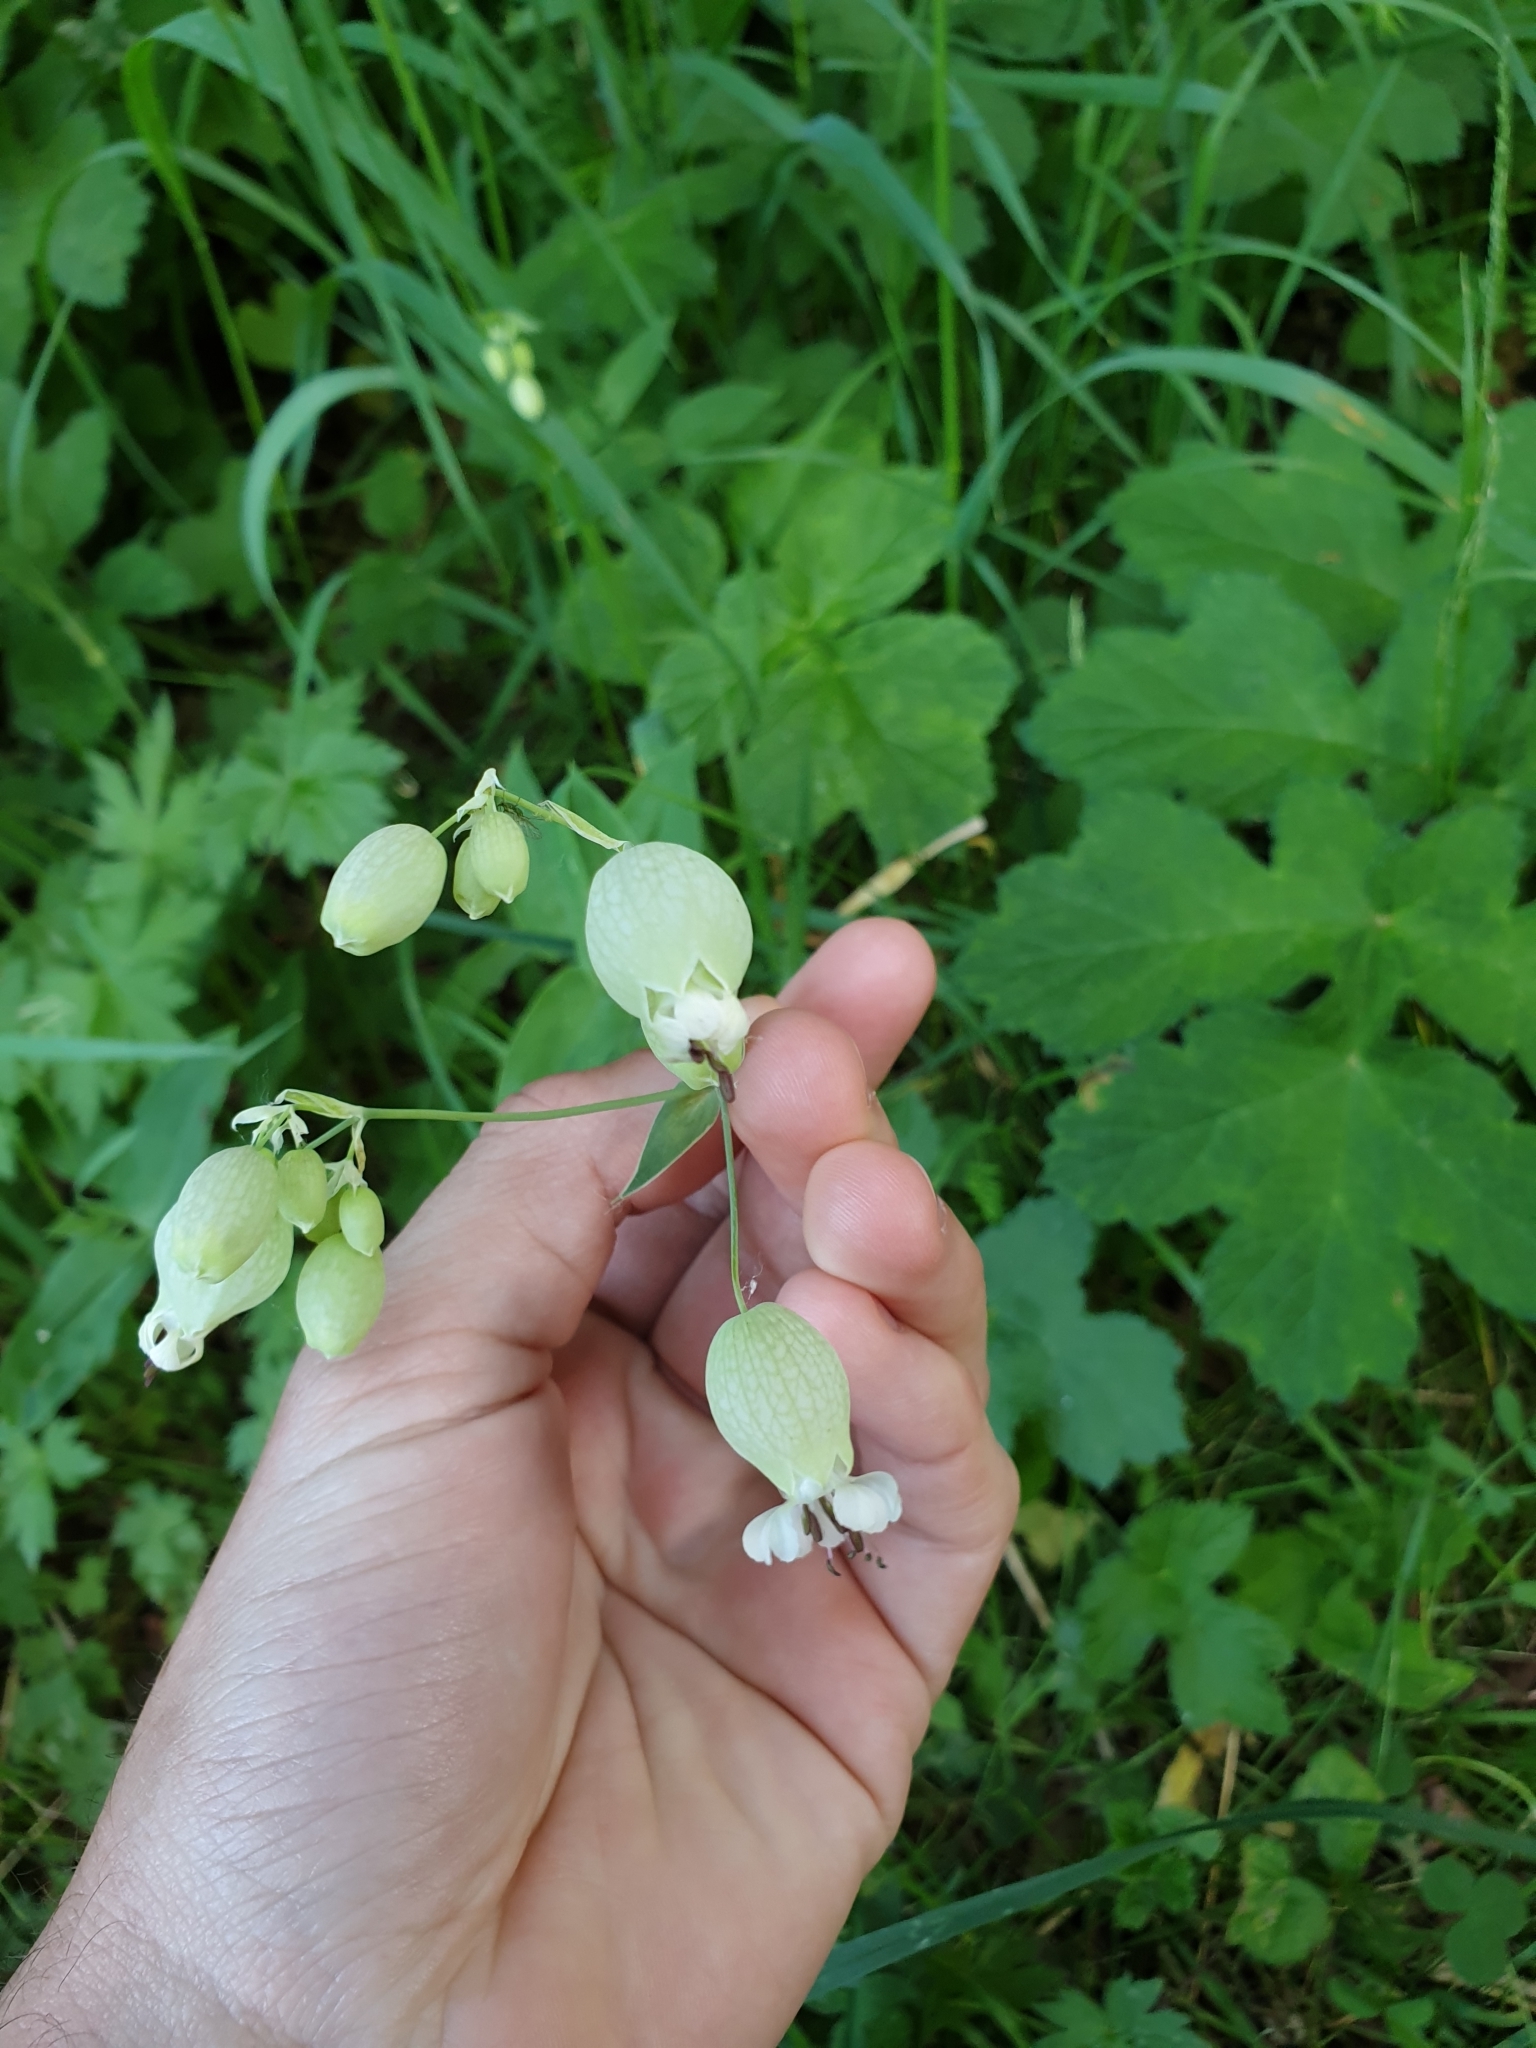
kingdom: Plantae
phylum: Tracheophyta
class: Magnoliopsida
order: Caryophyllales
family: Caryophyllaceae
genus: Silene
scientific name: Silene vulgaris
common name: Bladder campion
